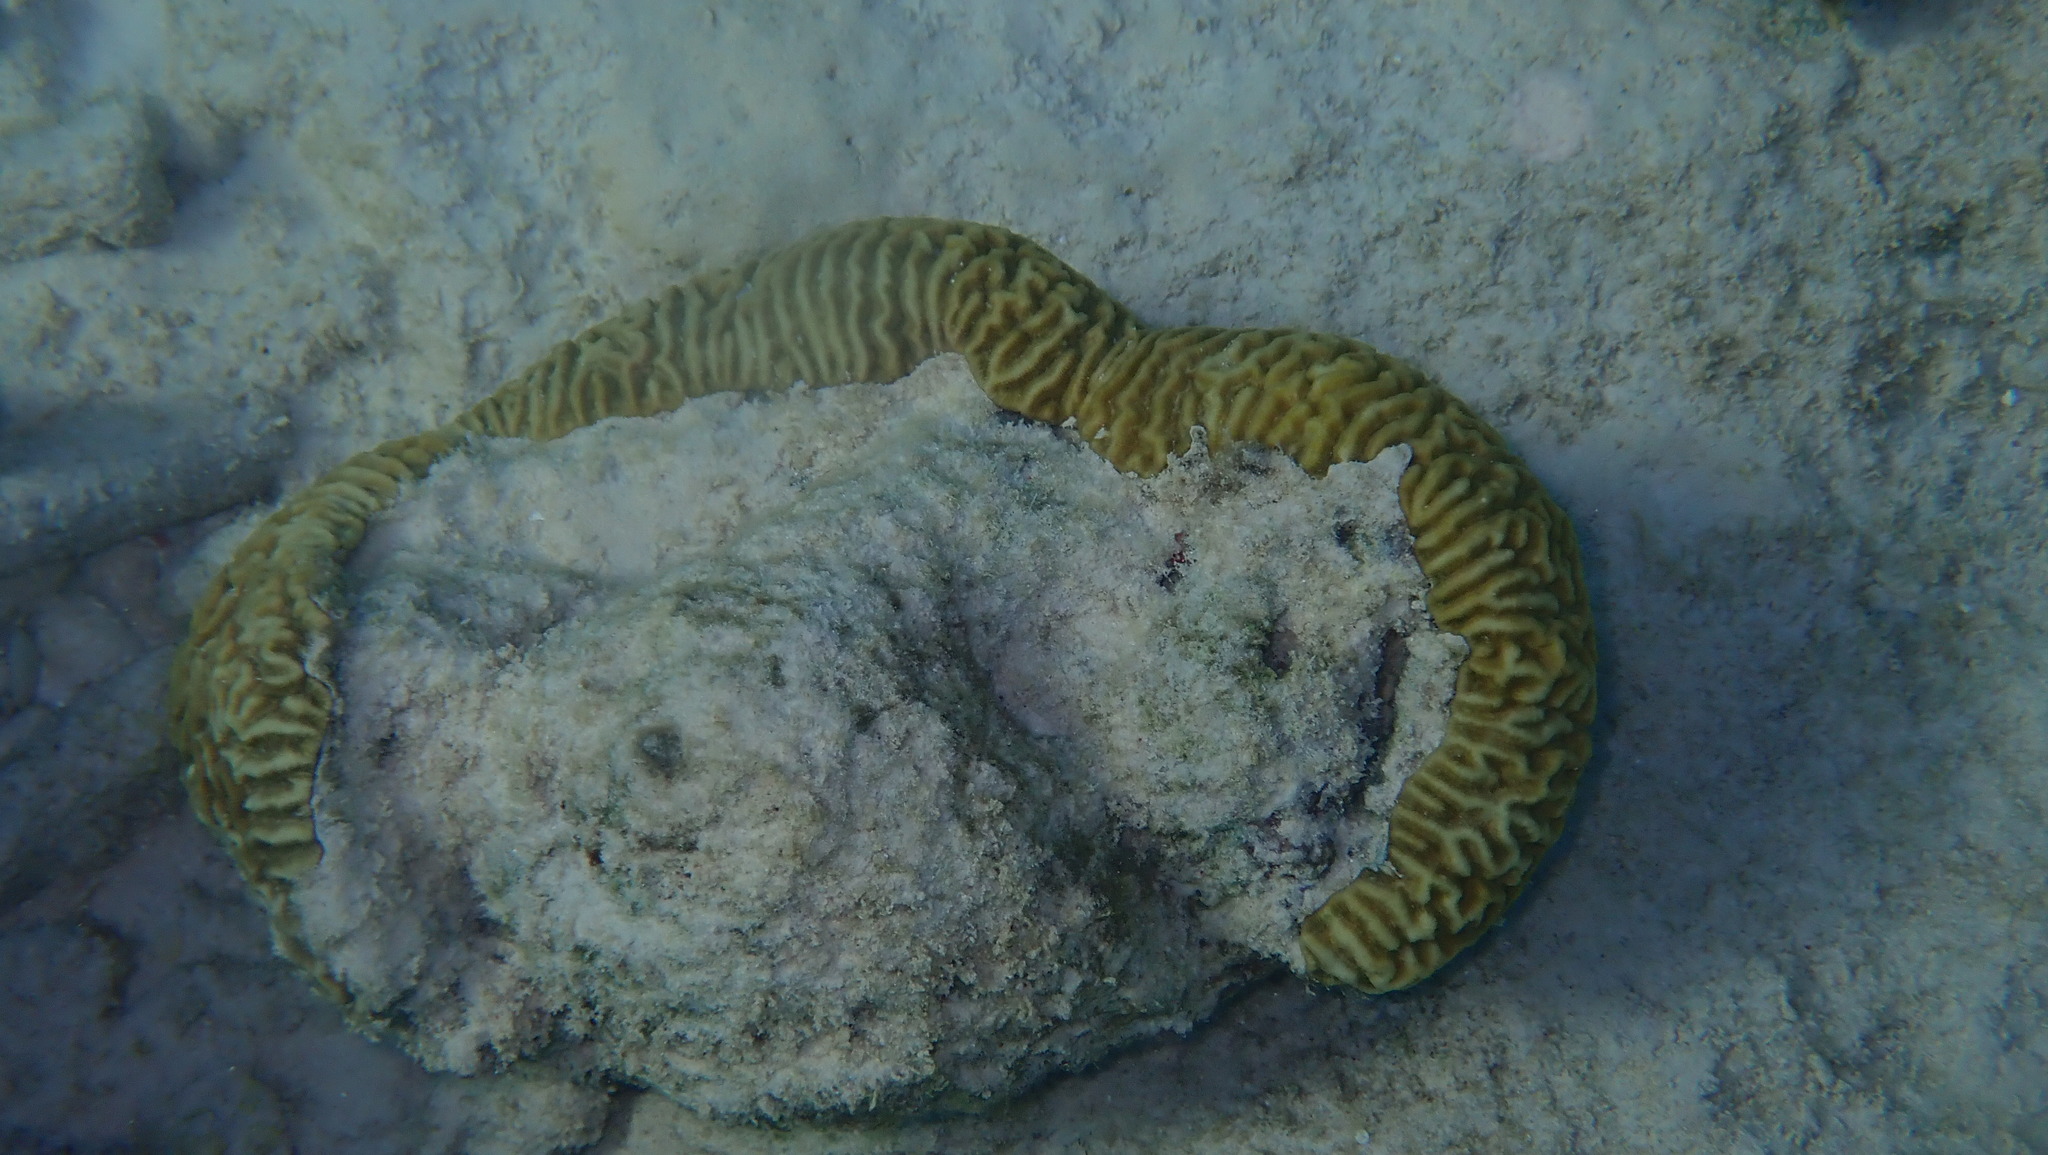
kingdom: Animalia
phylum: Cnidaria
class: Anthozoa
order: Scleractinia
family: Faviidae
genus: Pseudodiploria
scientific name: Pseudodiploria strigosa
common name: Symmetrical brain coral
